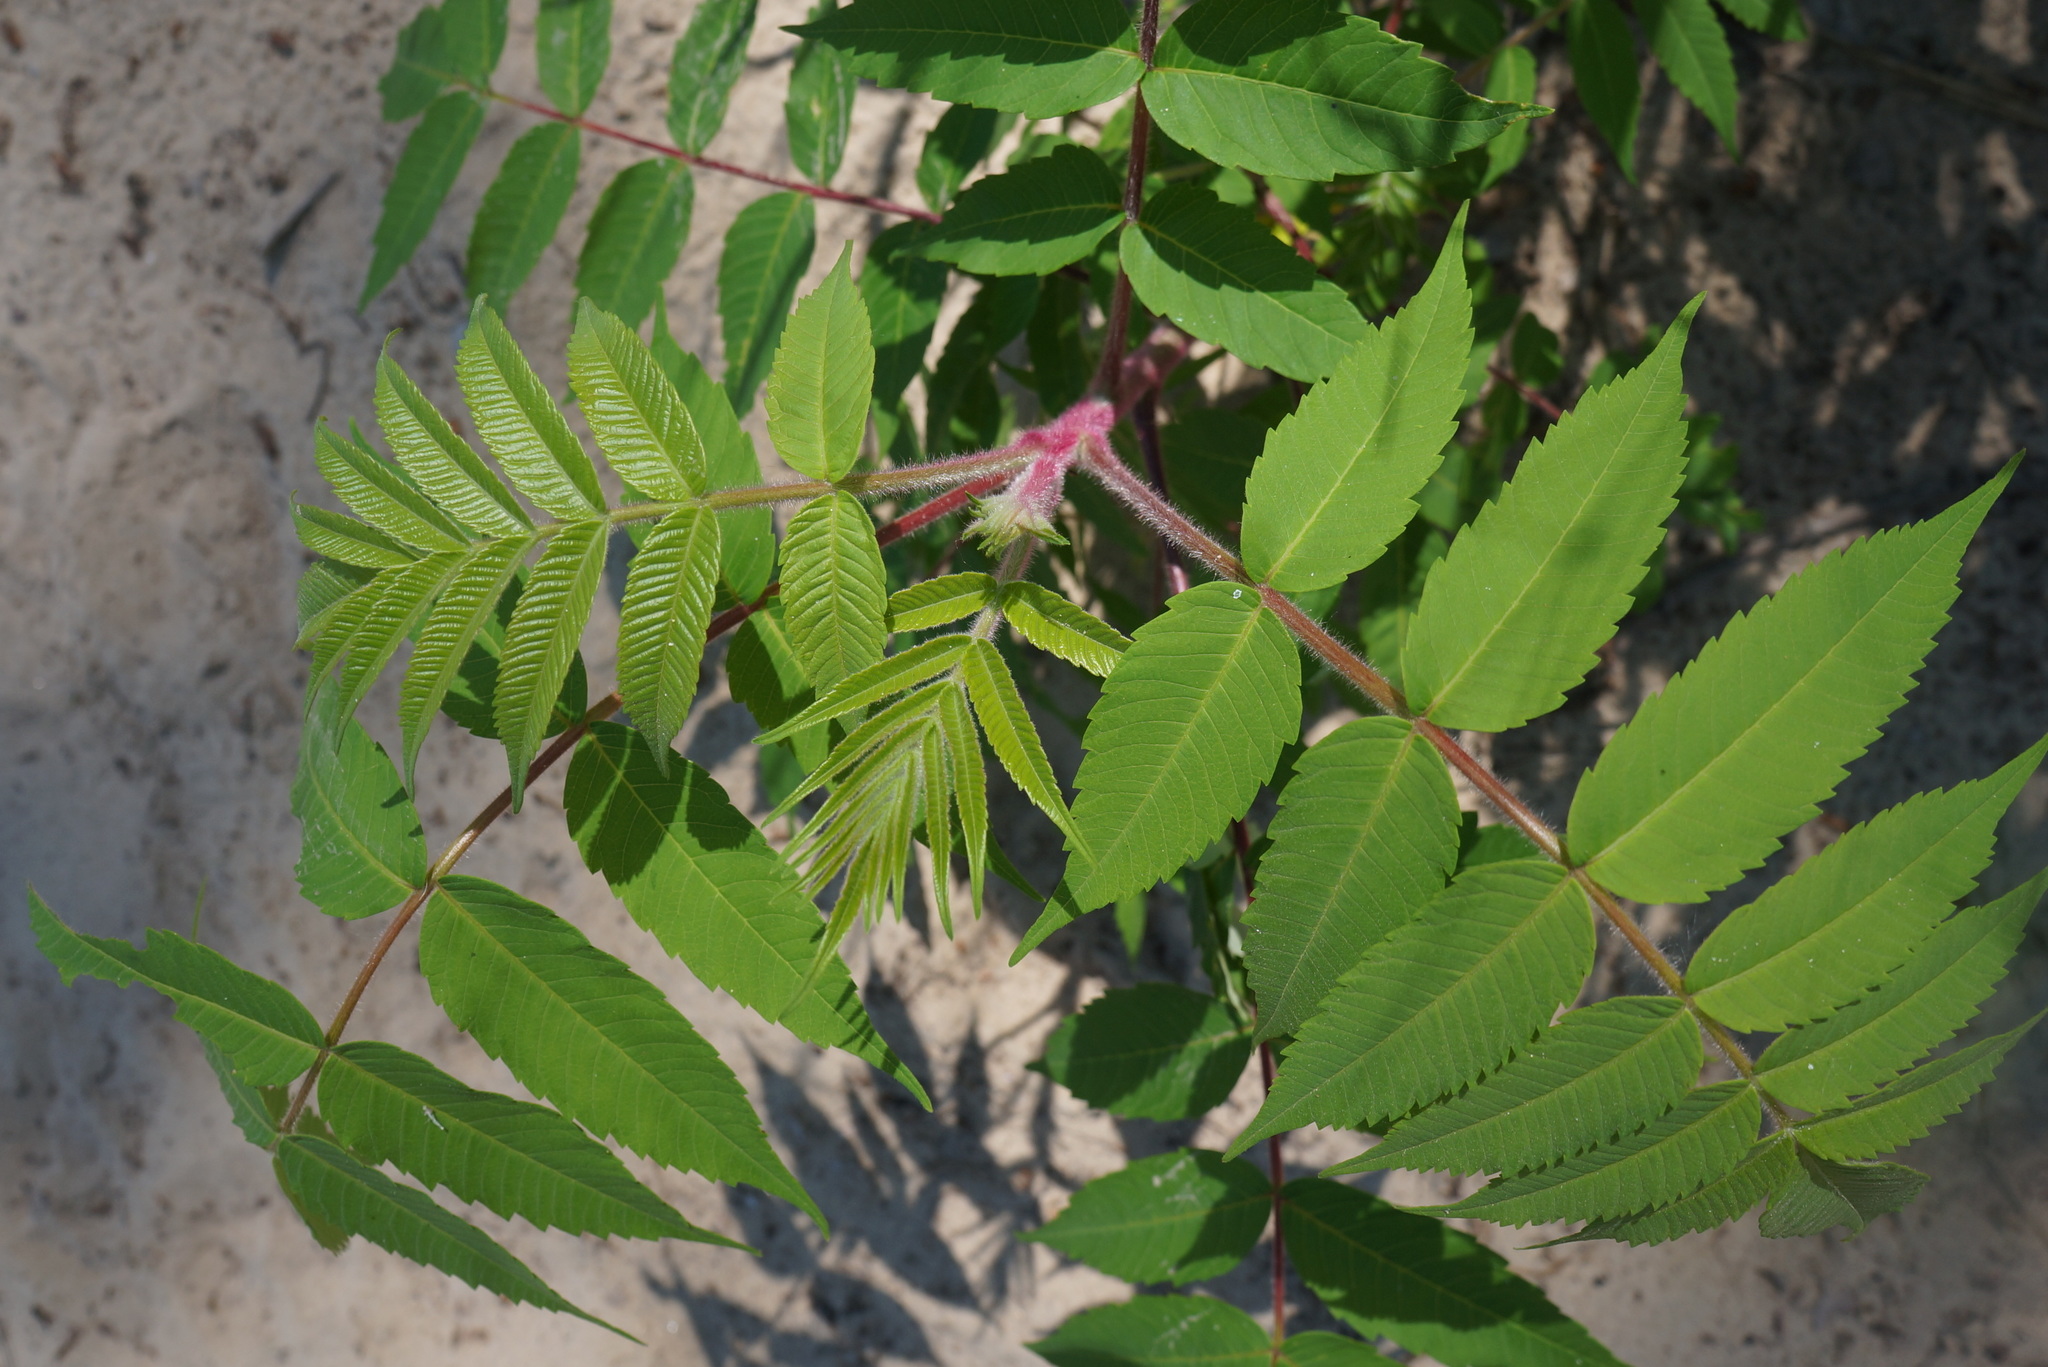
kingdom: Plantae
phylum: Tracheophyta
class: Magnoliopsida
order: Sapindales
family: Anacardiaceae
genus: Rhus
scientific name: Rhus typhina
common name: Staghorn sumac
